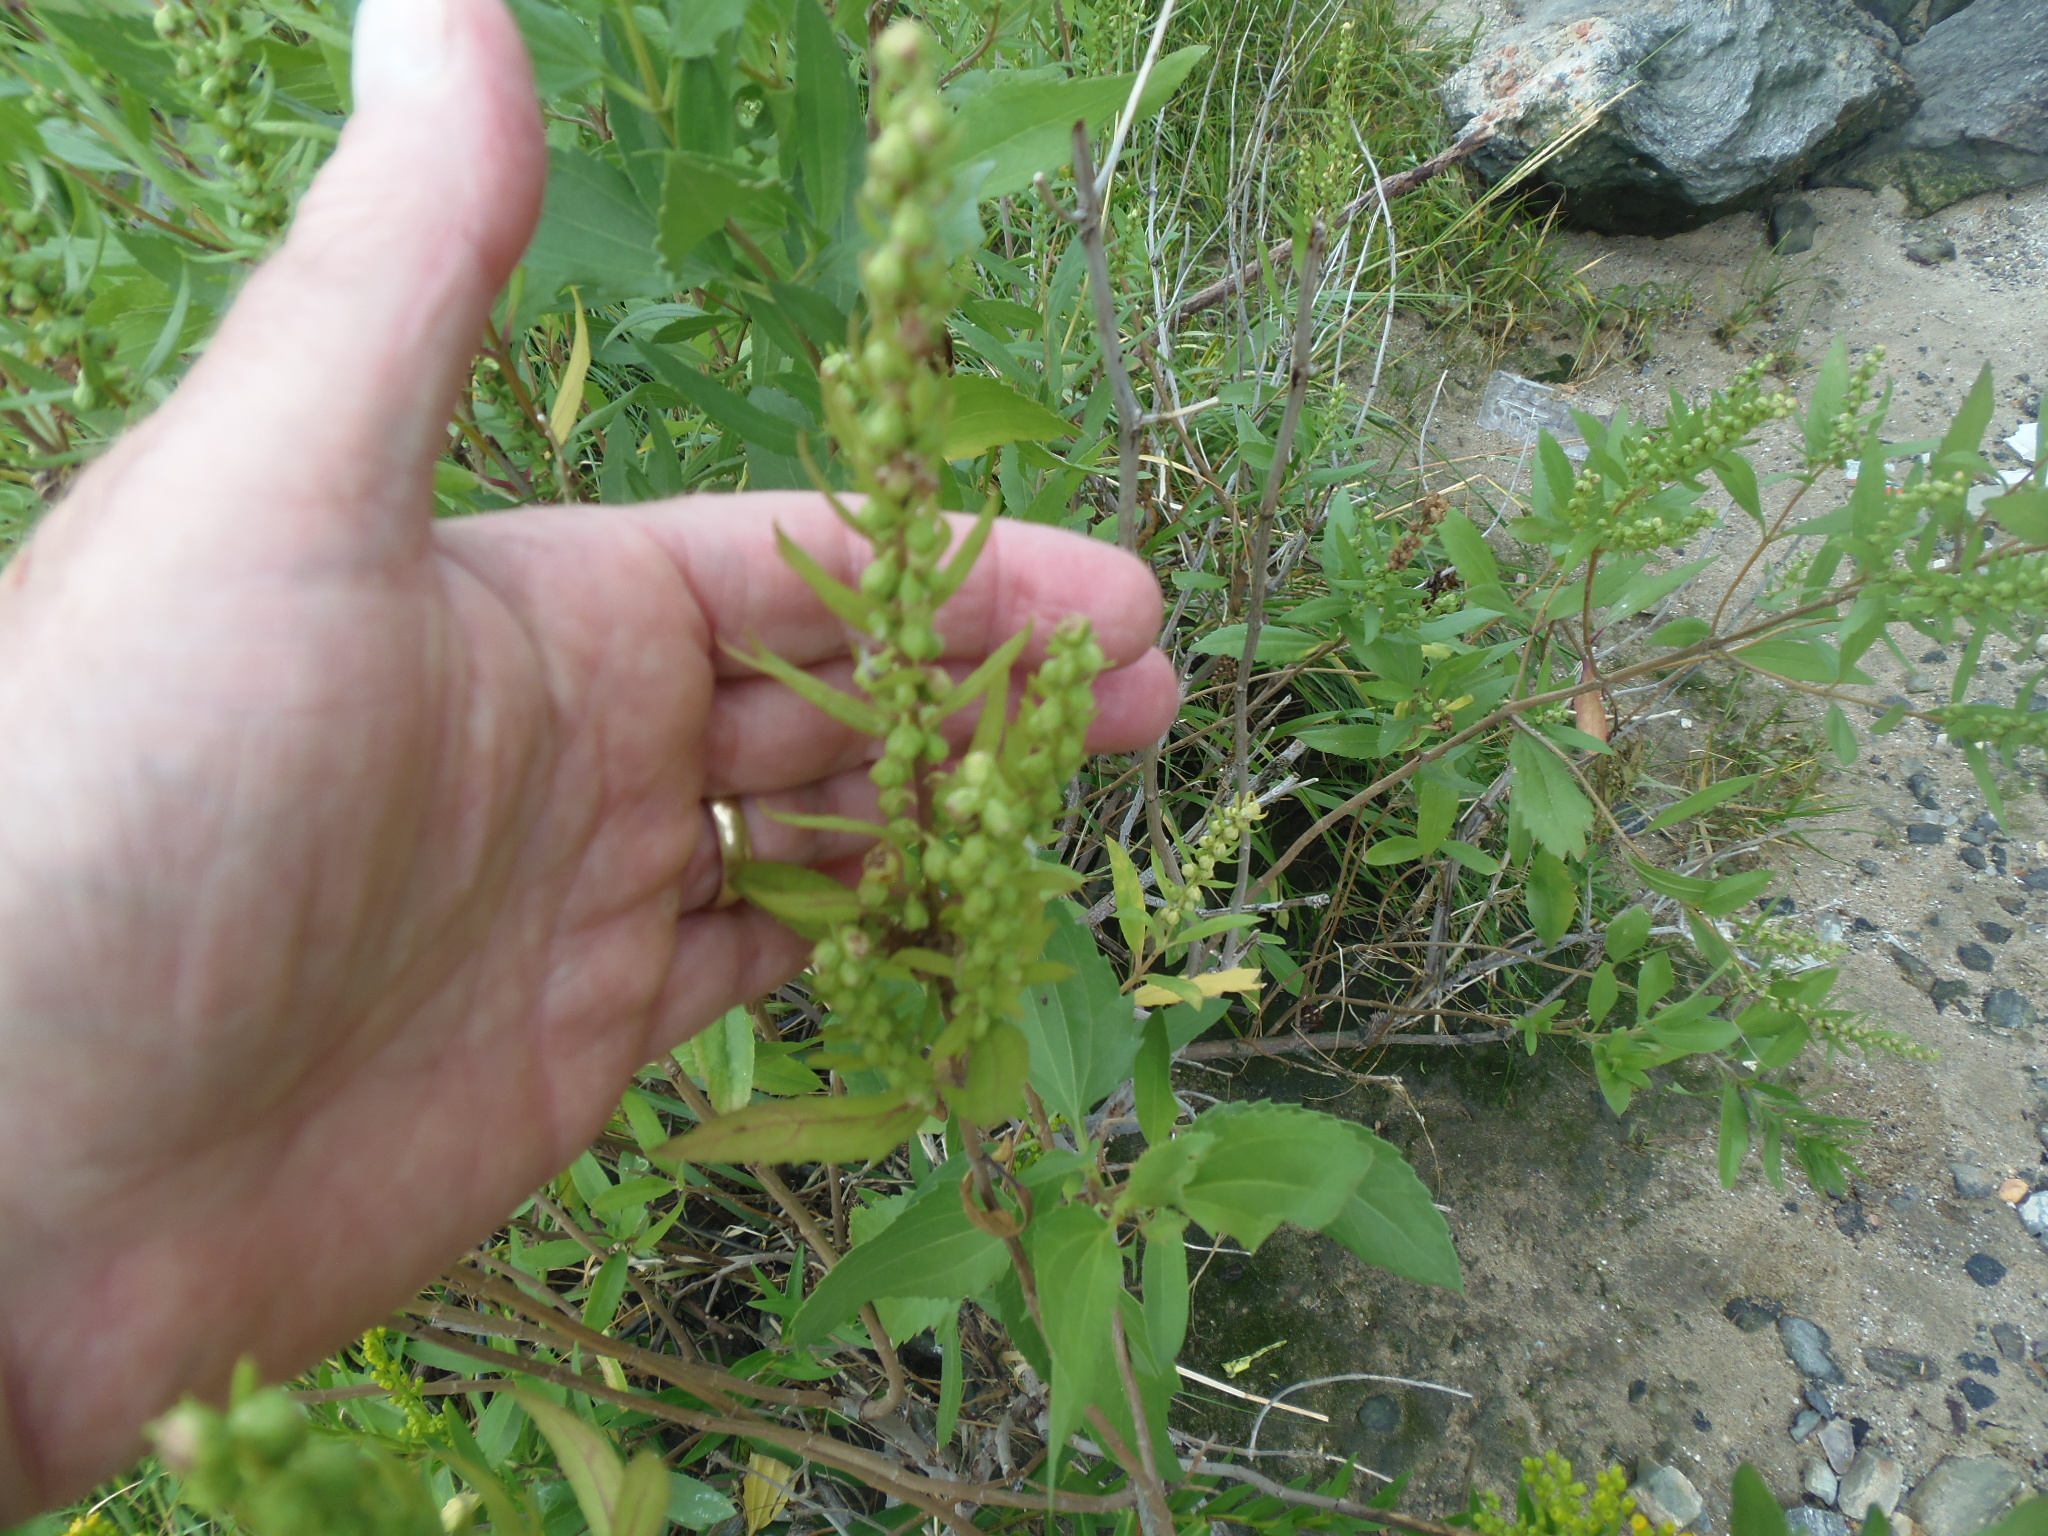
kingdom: Plantae
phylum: Tracheophyta
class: Magnoliopsida
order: Asterales
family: Asteraceae
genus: Iva
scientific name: Iva frutescens
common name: Big-leaved marsh-elder
